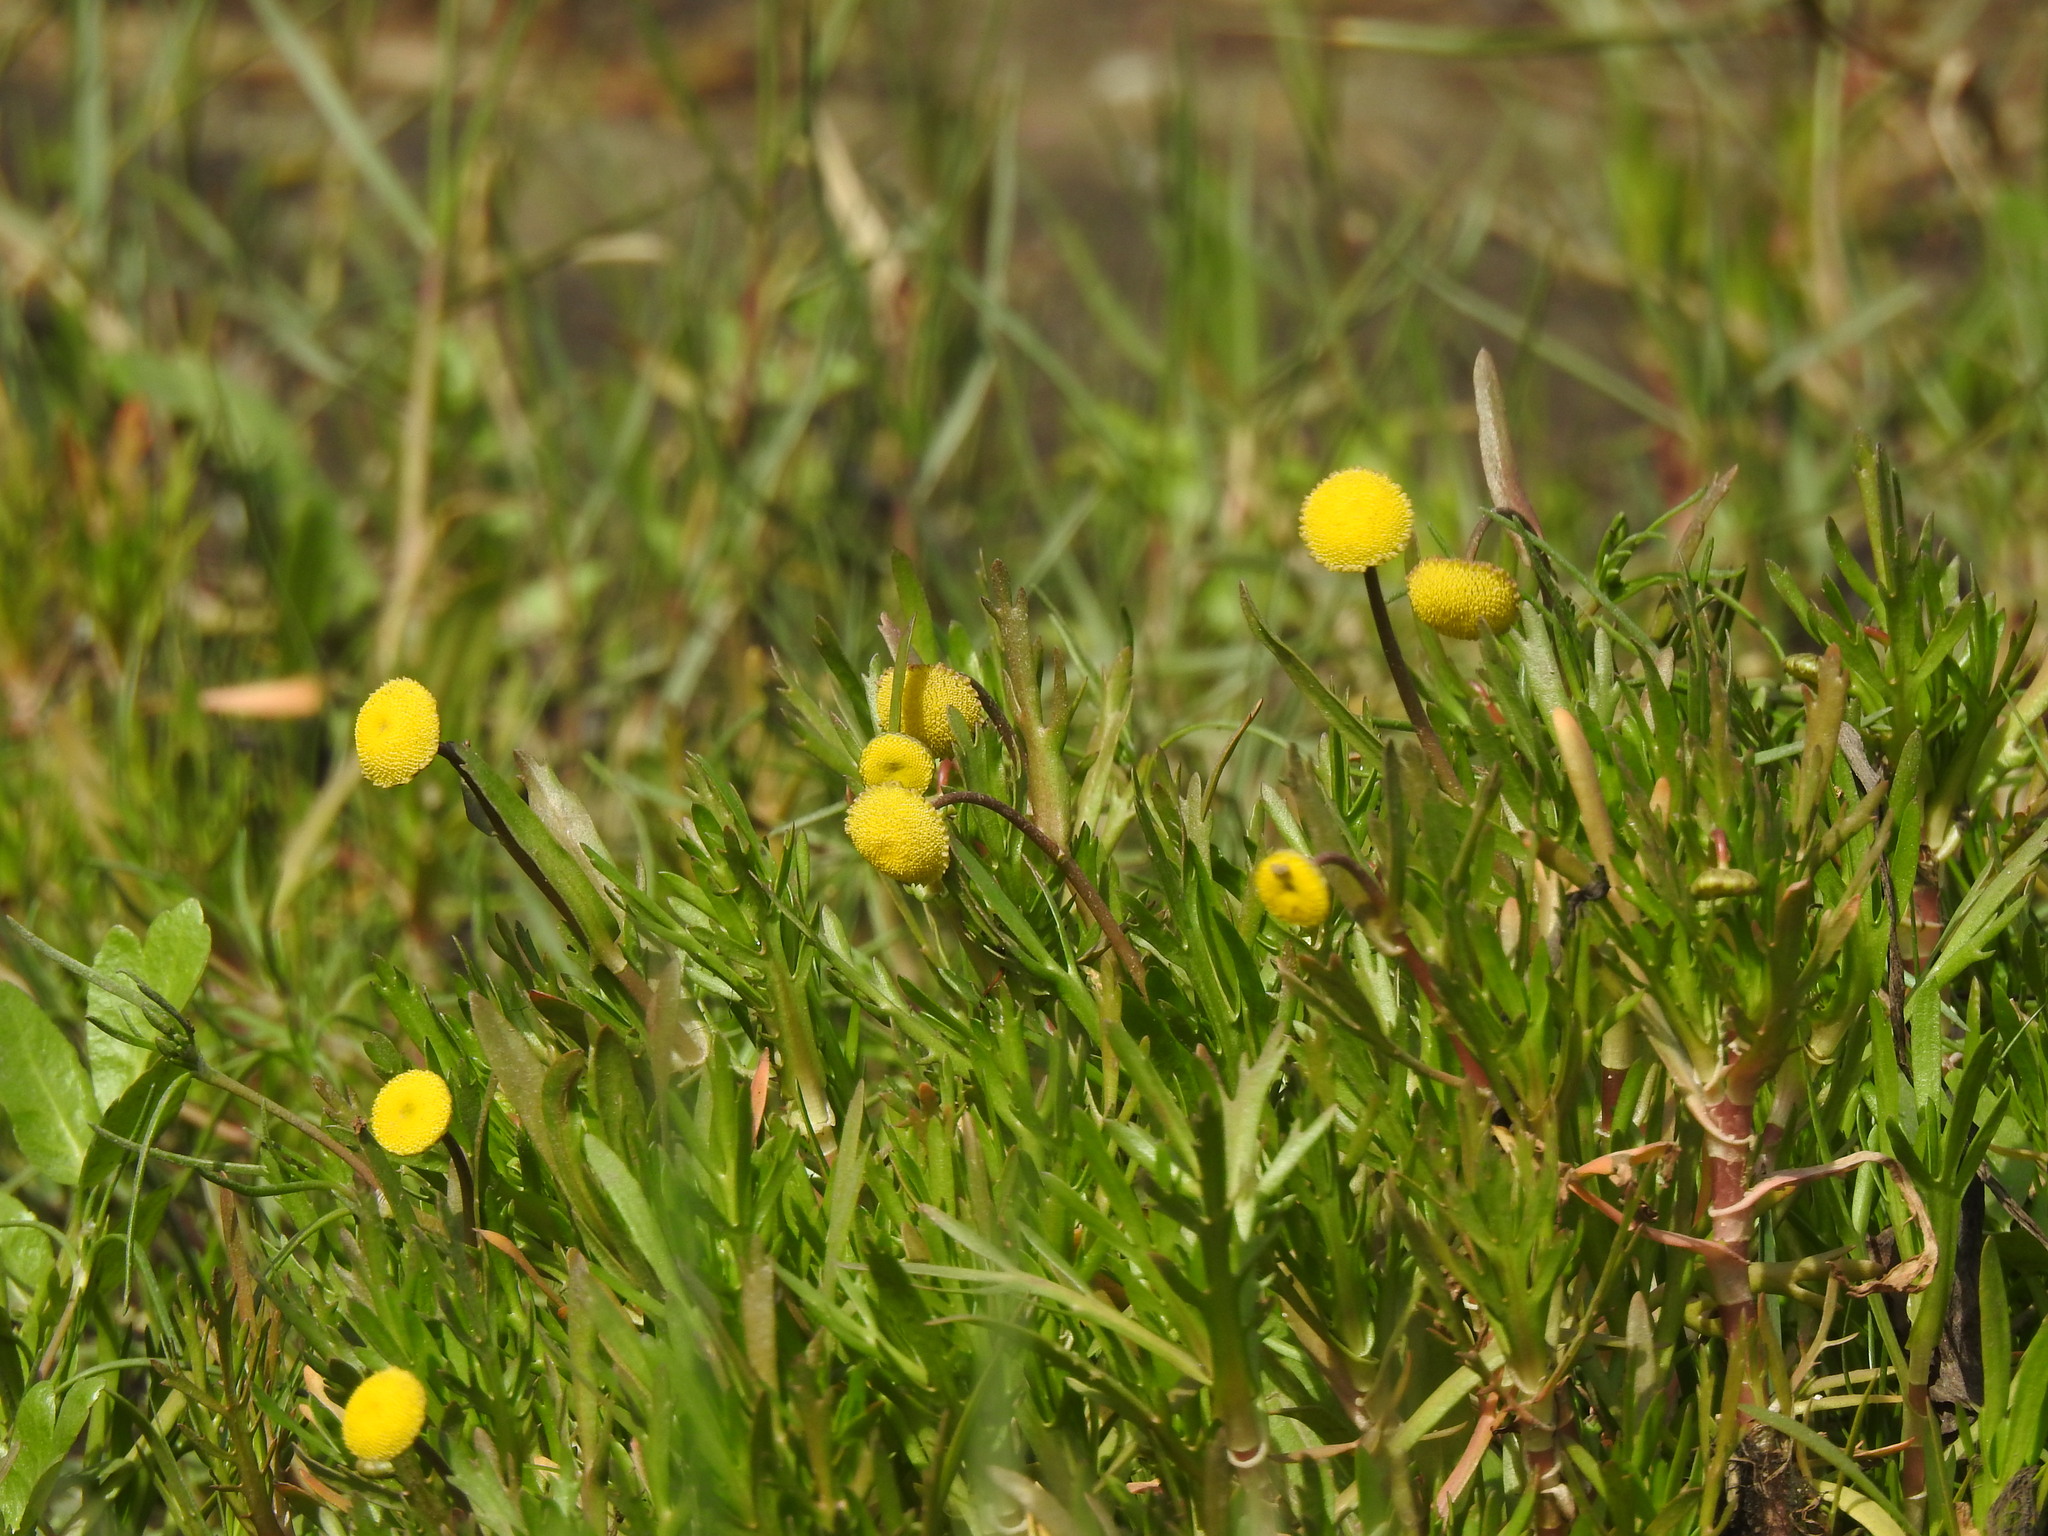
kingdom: Plantae
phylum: Tracheophyta
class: Magnoliopsida
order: Asterales
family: Asteraceae
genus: Cotula
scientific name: Cotula coronopifolia
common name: Buttonweed
